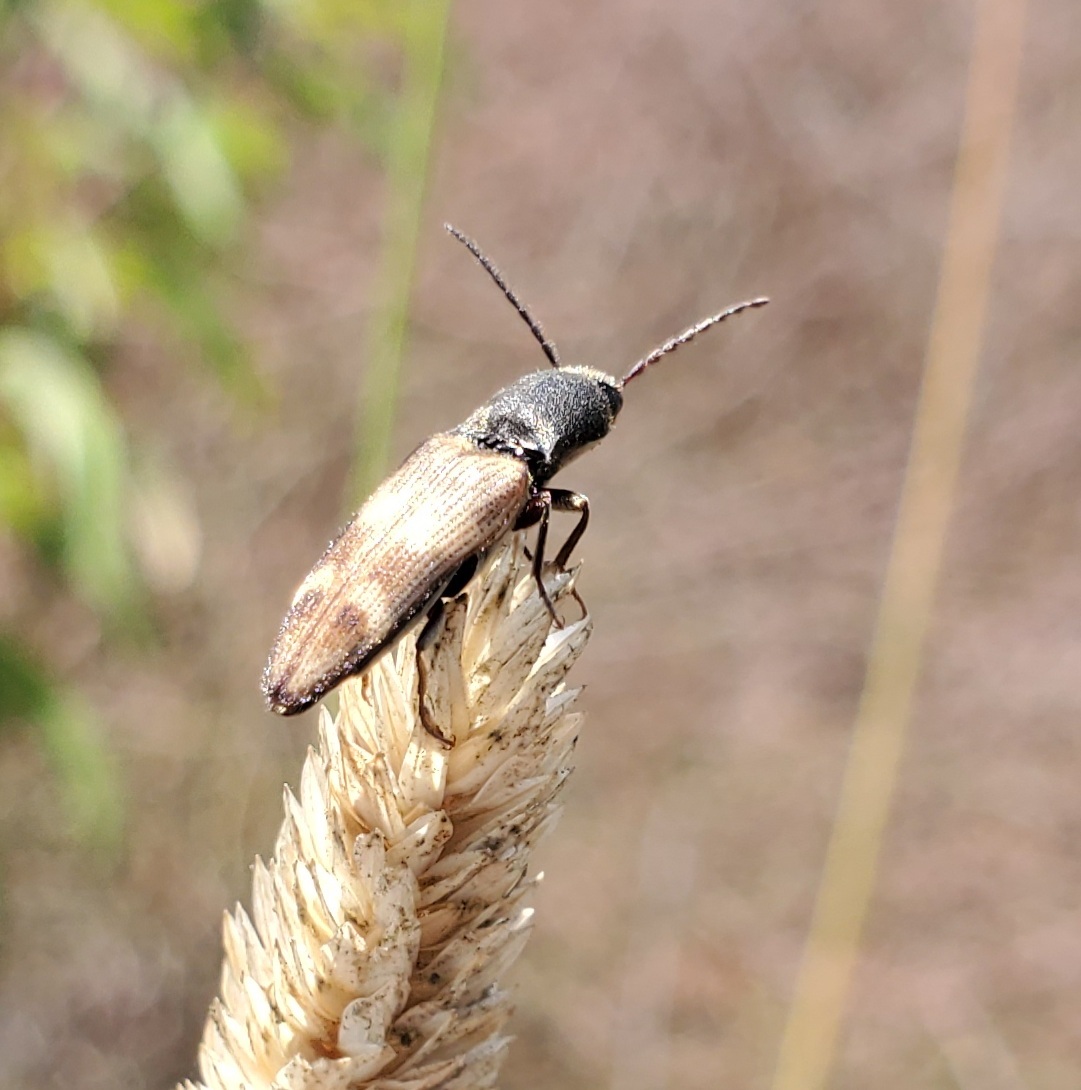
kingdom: Animalia
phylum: Arthropoda
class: Insecta
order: Coleoptera
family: Elateridae
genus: Megapenthes
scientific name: Megapenthes
